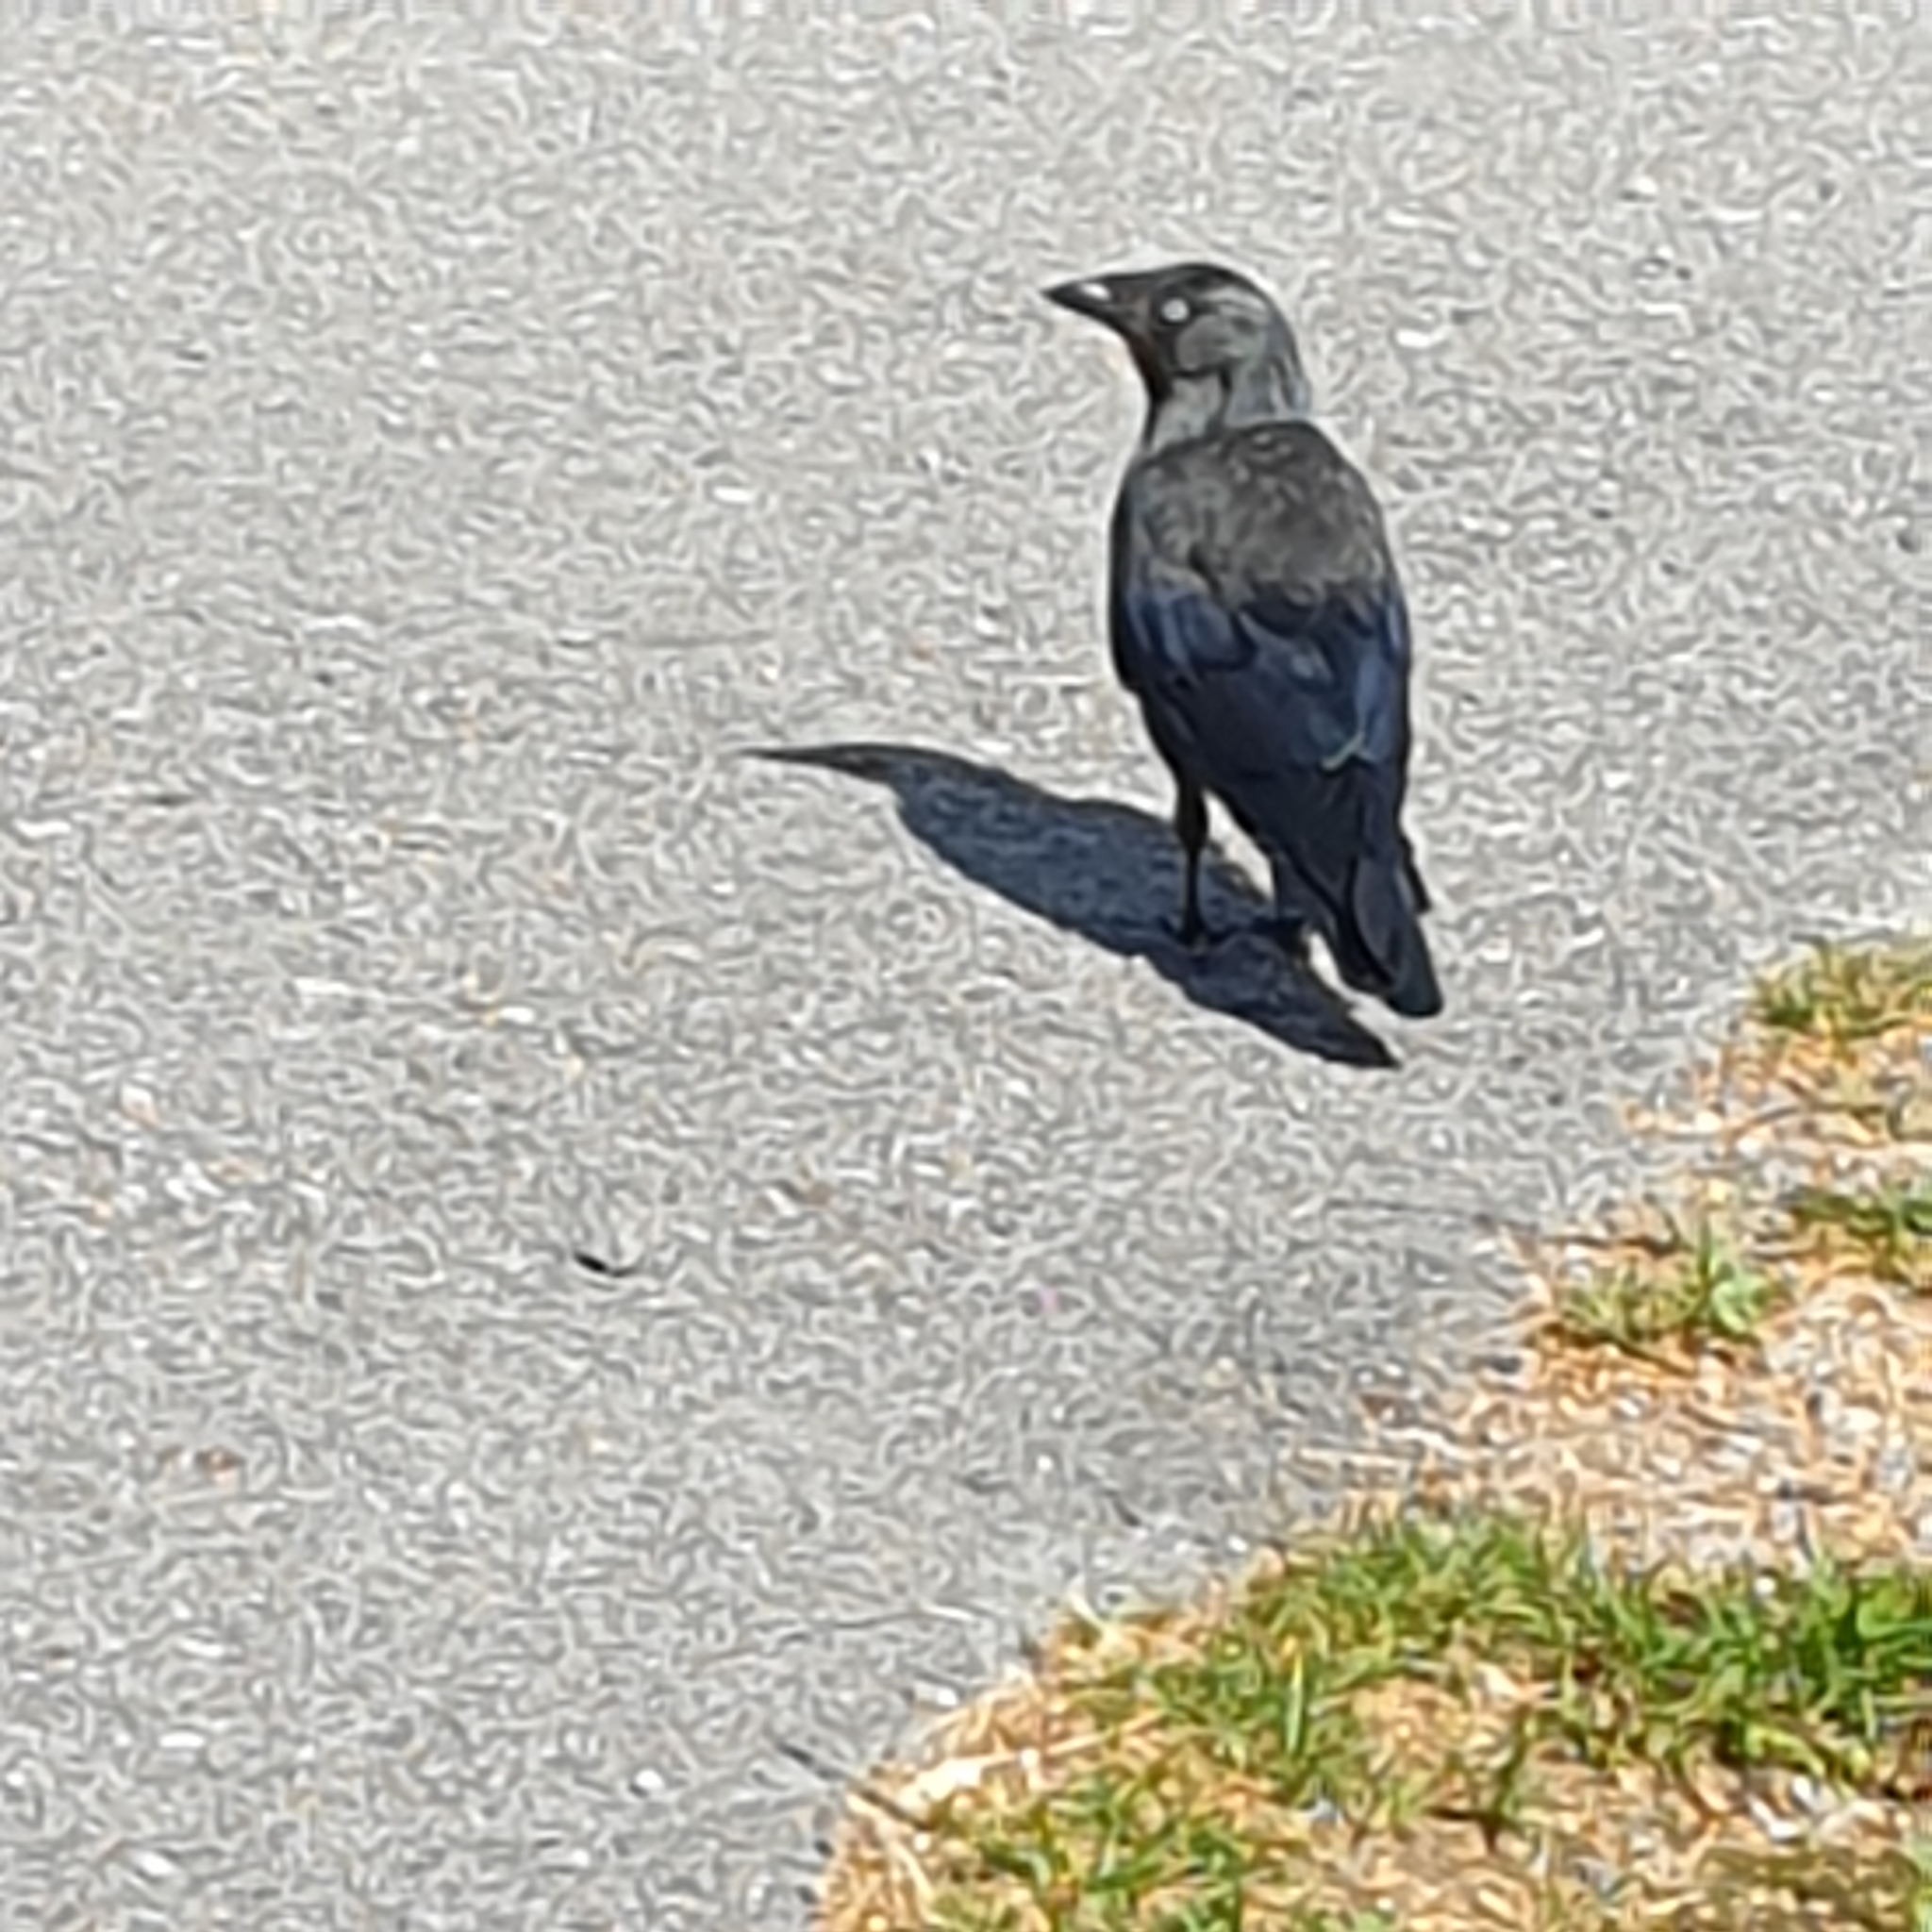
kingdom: Animalia
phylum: Chordata
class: Aves
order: Passeriformes
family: Corvidae
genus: Coloeus
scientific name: Coloeus monedula
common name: Western jackdaw
